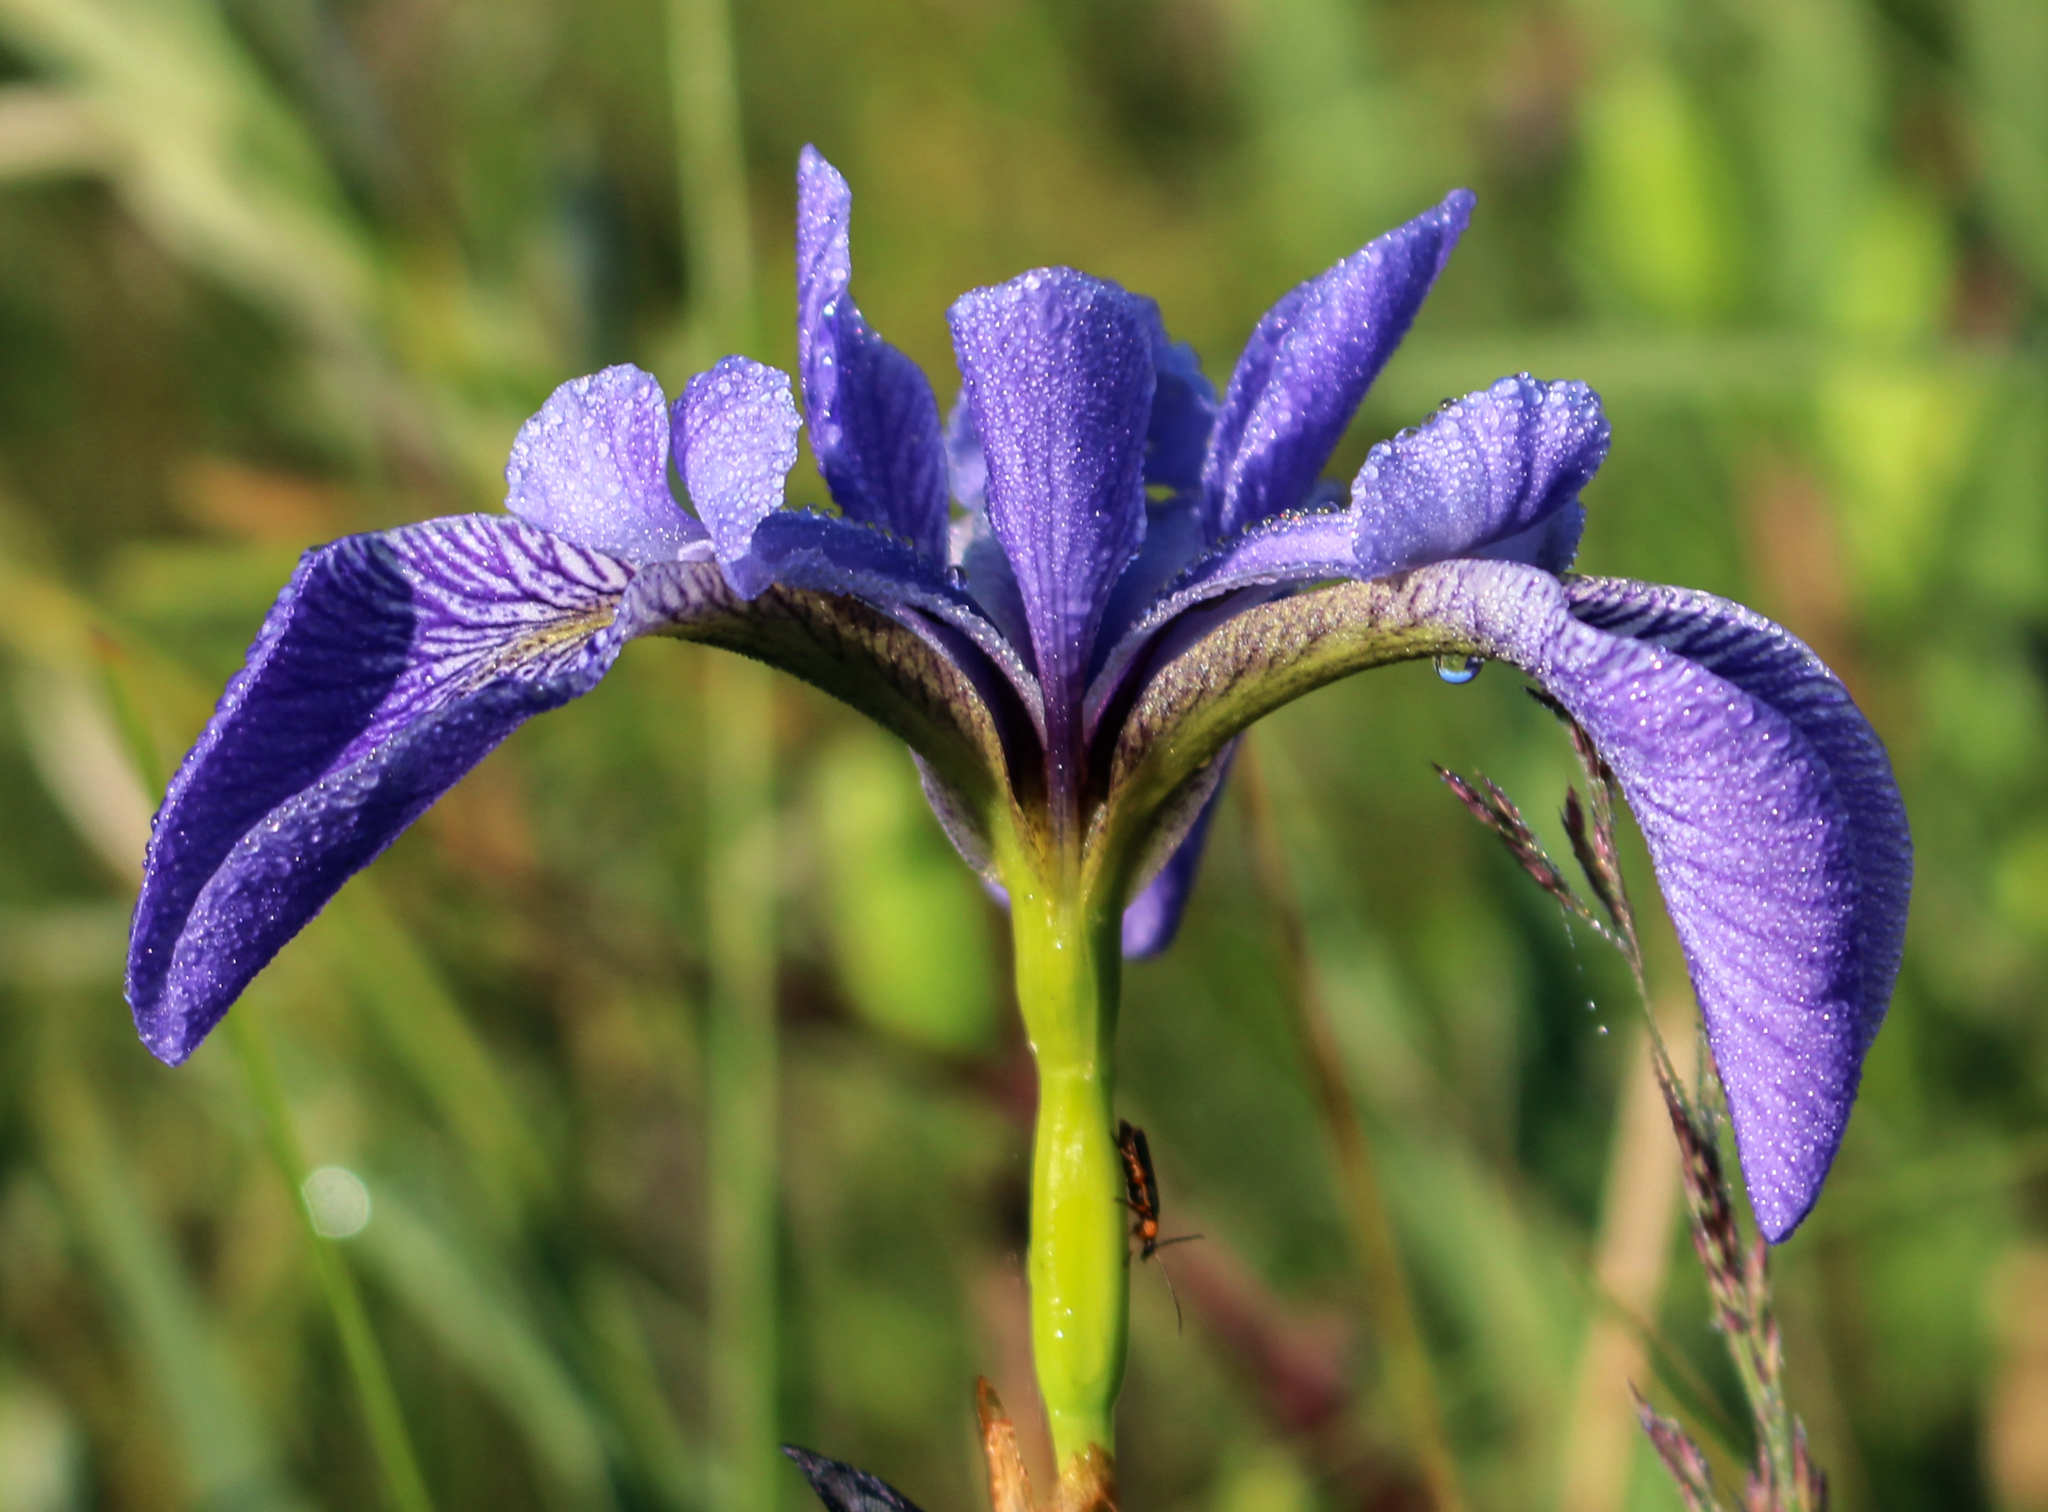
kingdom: Plantae
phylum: Tracheophyta
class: Liliopsida
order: Asparagales
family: Iridaceae
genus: Iris
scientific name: Iris versicolor
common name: Purple iris
